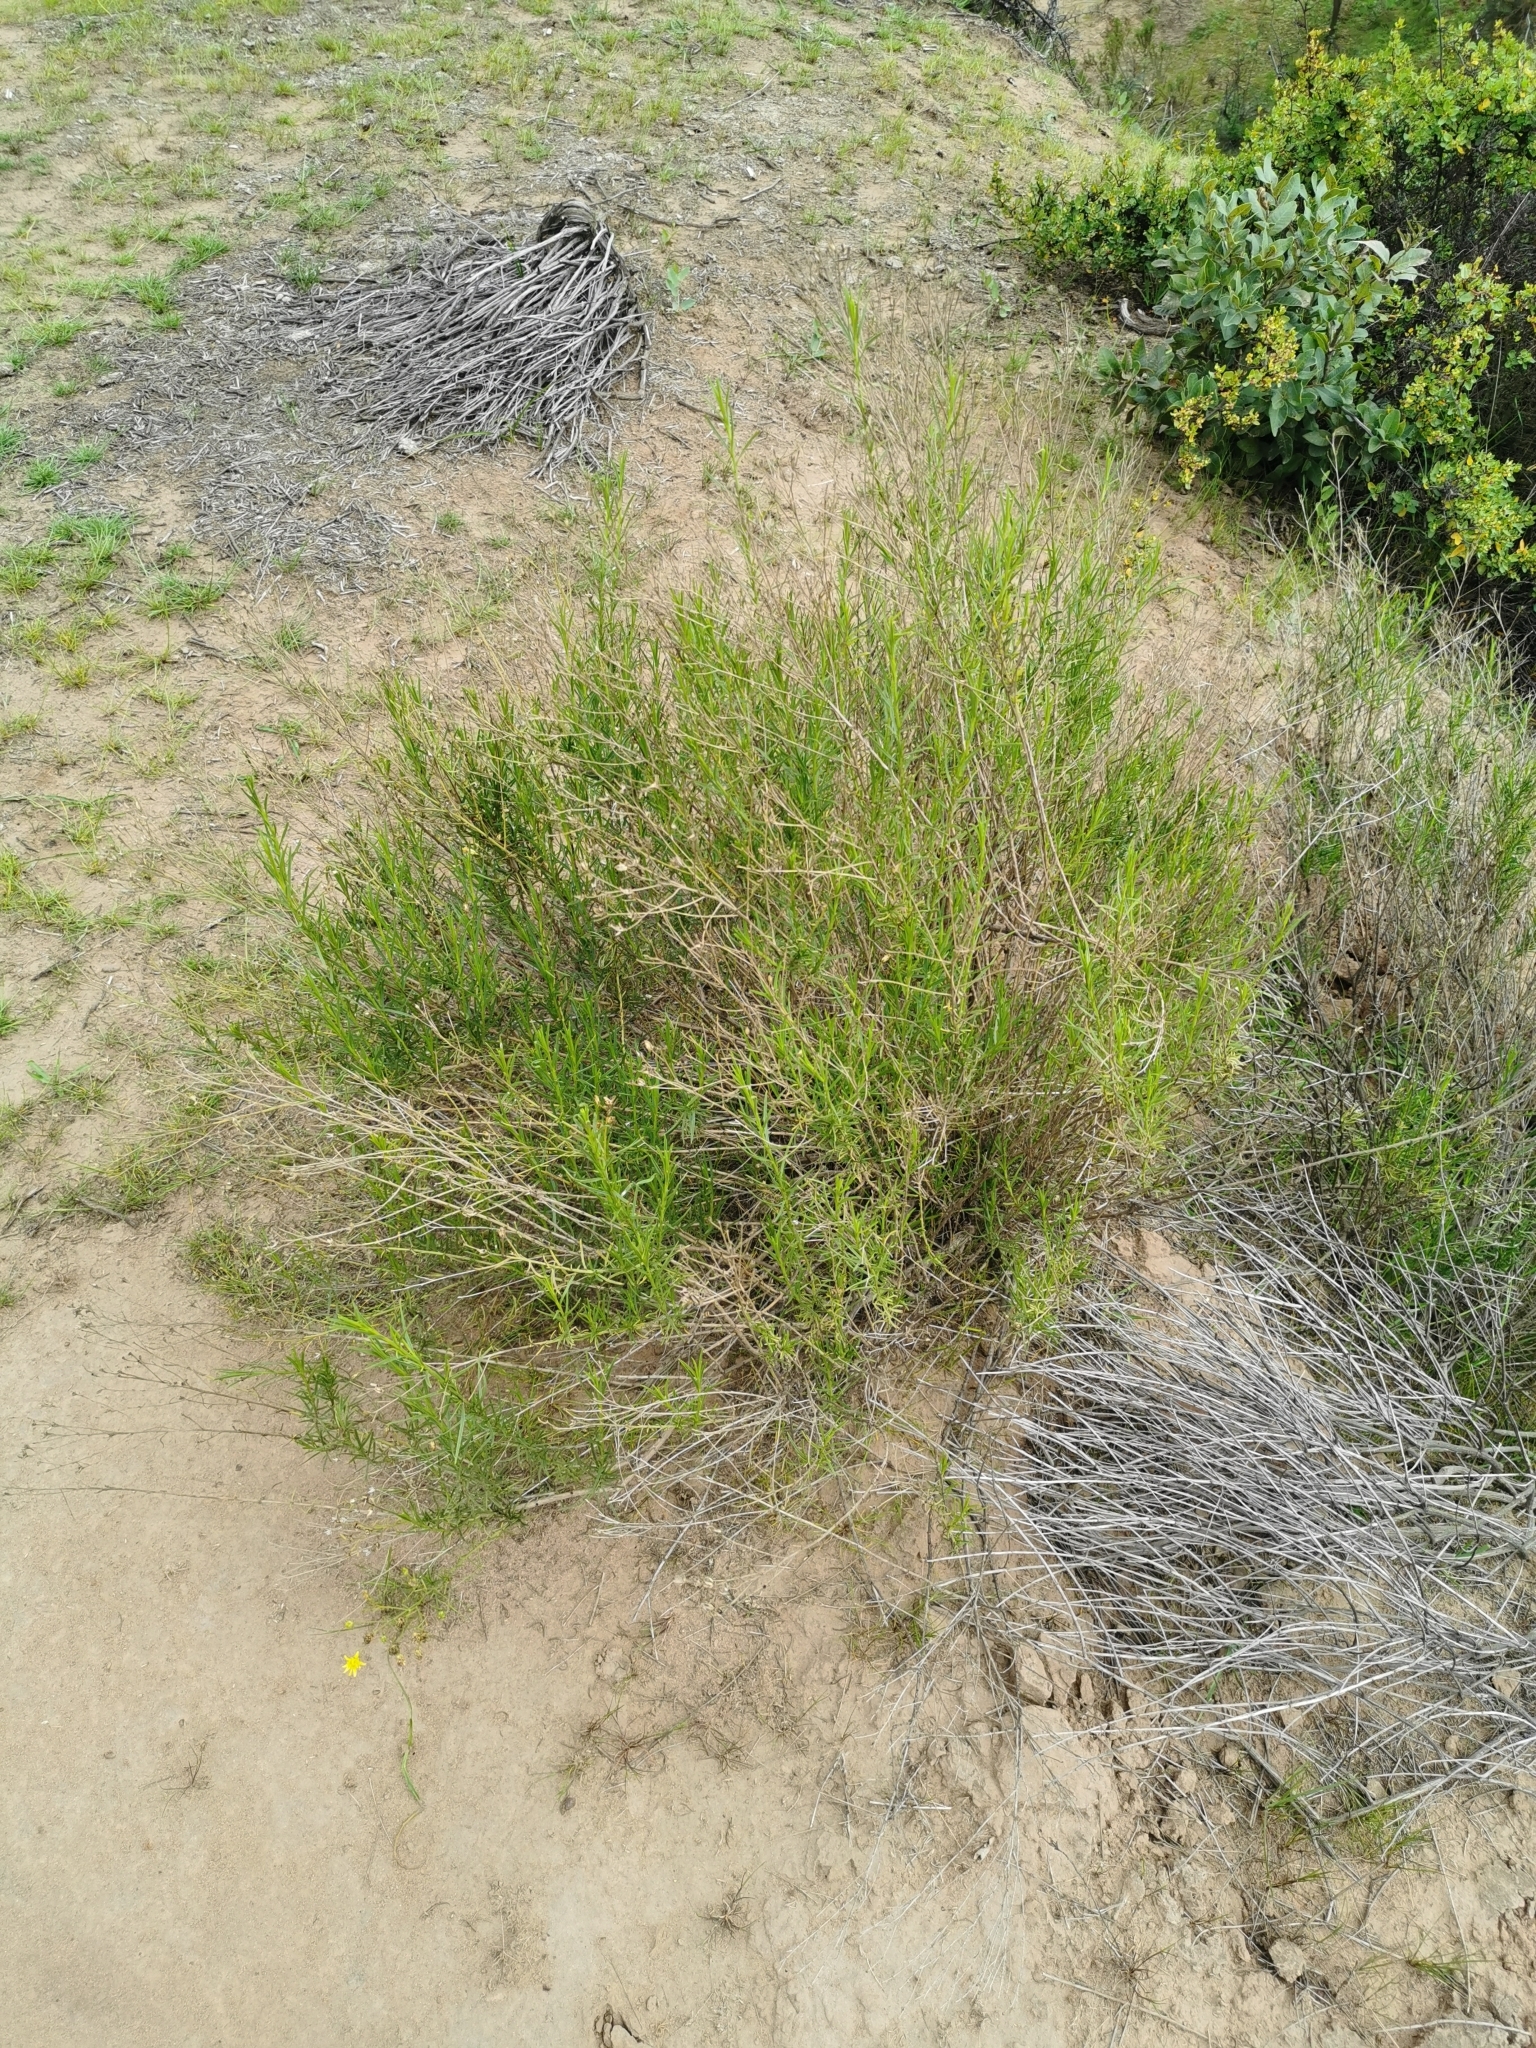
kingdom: Plantae
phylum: Tracheophyta
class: Magnoliopsida
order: Asterales
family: Asteraceae
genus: Gutierrezia
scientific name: Gutierrezia resinosa
